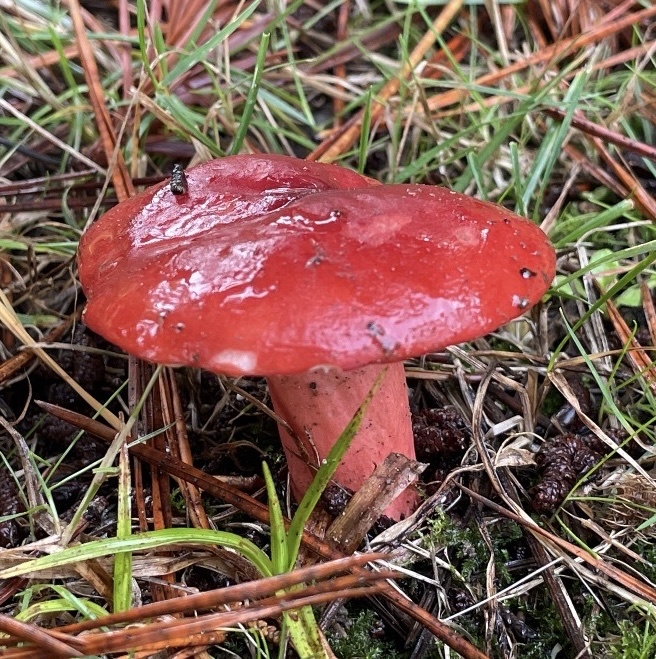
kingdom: Fungi
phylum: Basidiomycota
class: Agaricomycetes
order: Russulales
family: Russulaceae
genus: Russula
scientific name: Russula rhodocephala
